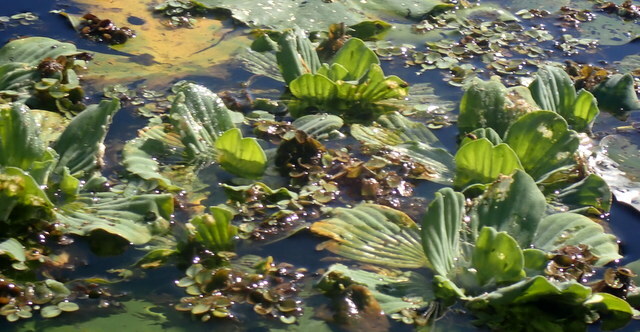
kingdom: Plantae
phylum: Tracheophyta
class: Liliopsida
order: Alismatales
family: Araceae
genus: Pistia
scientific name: Pistia stratiotes
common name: Water lettuce
